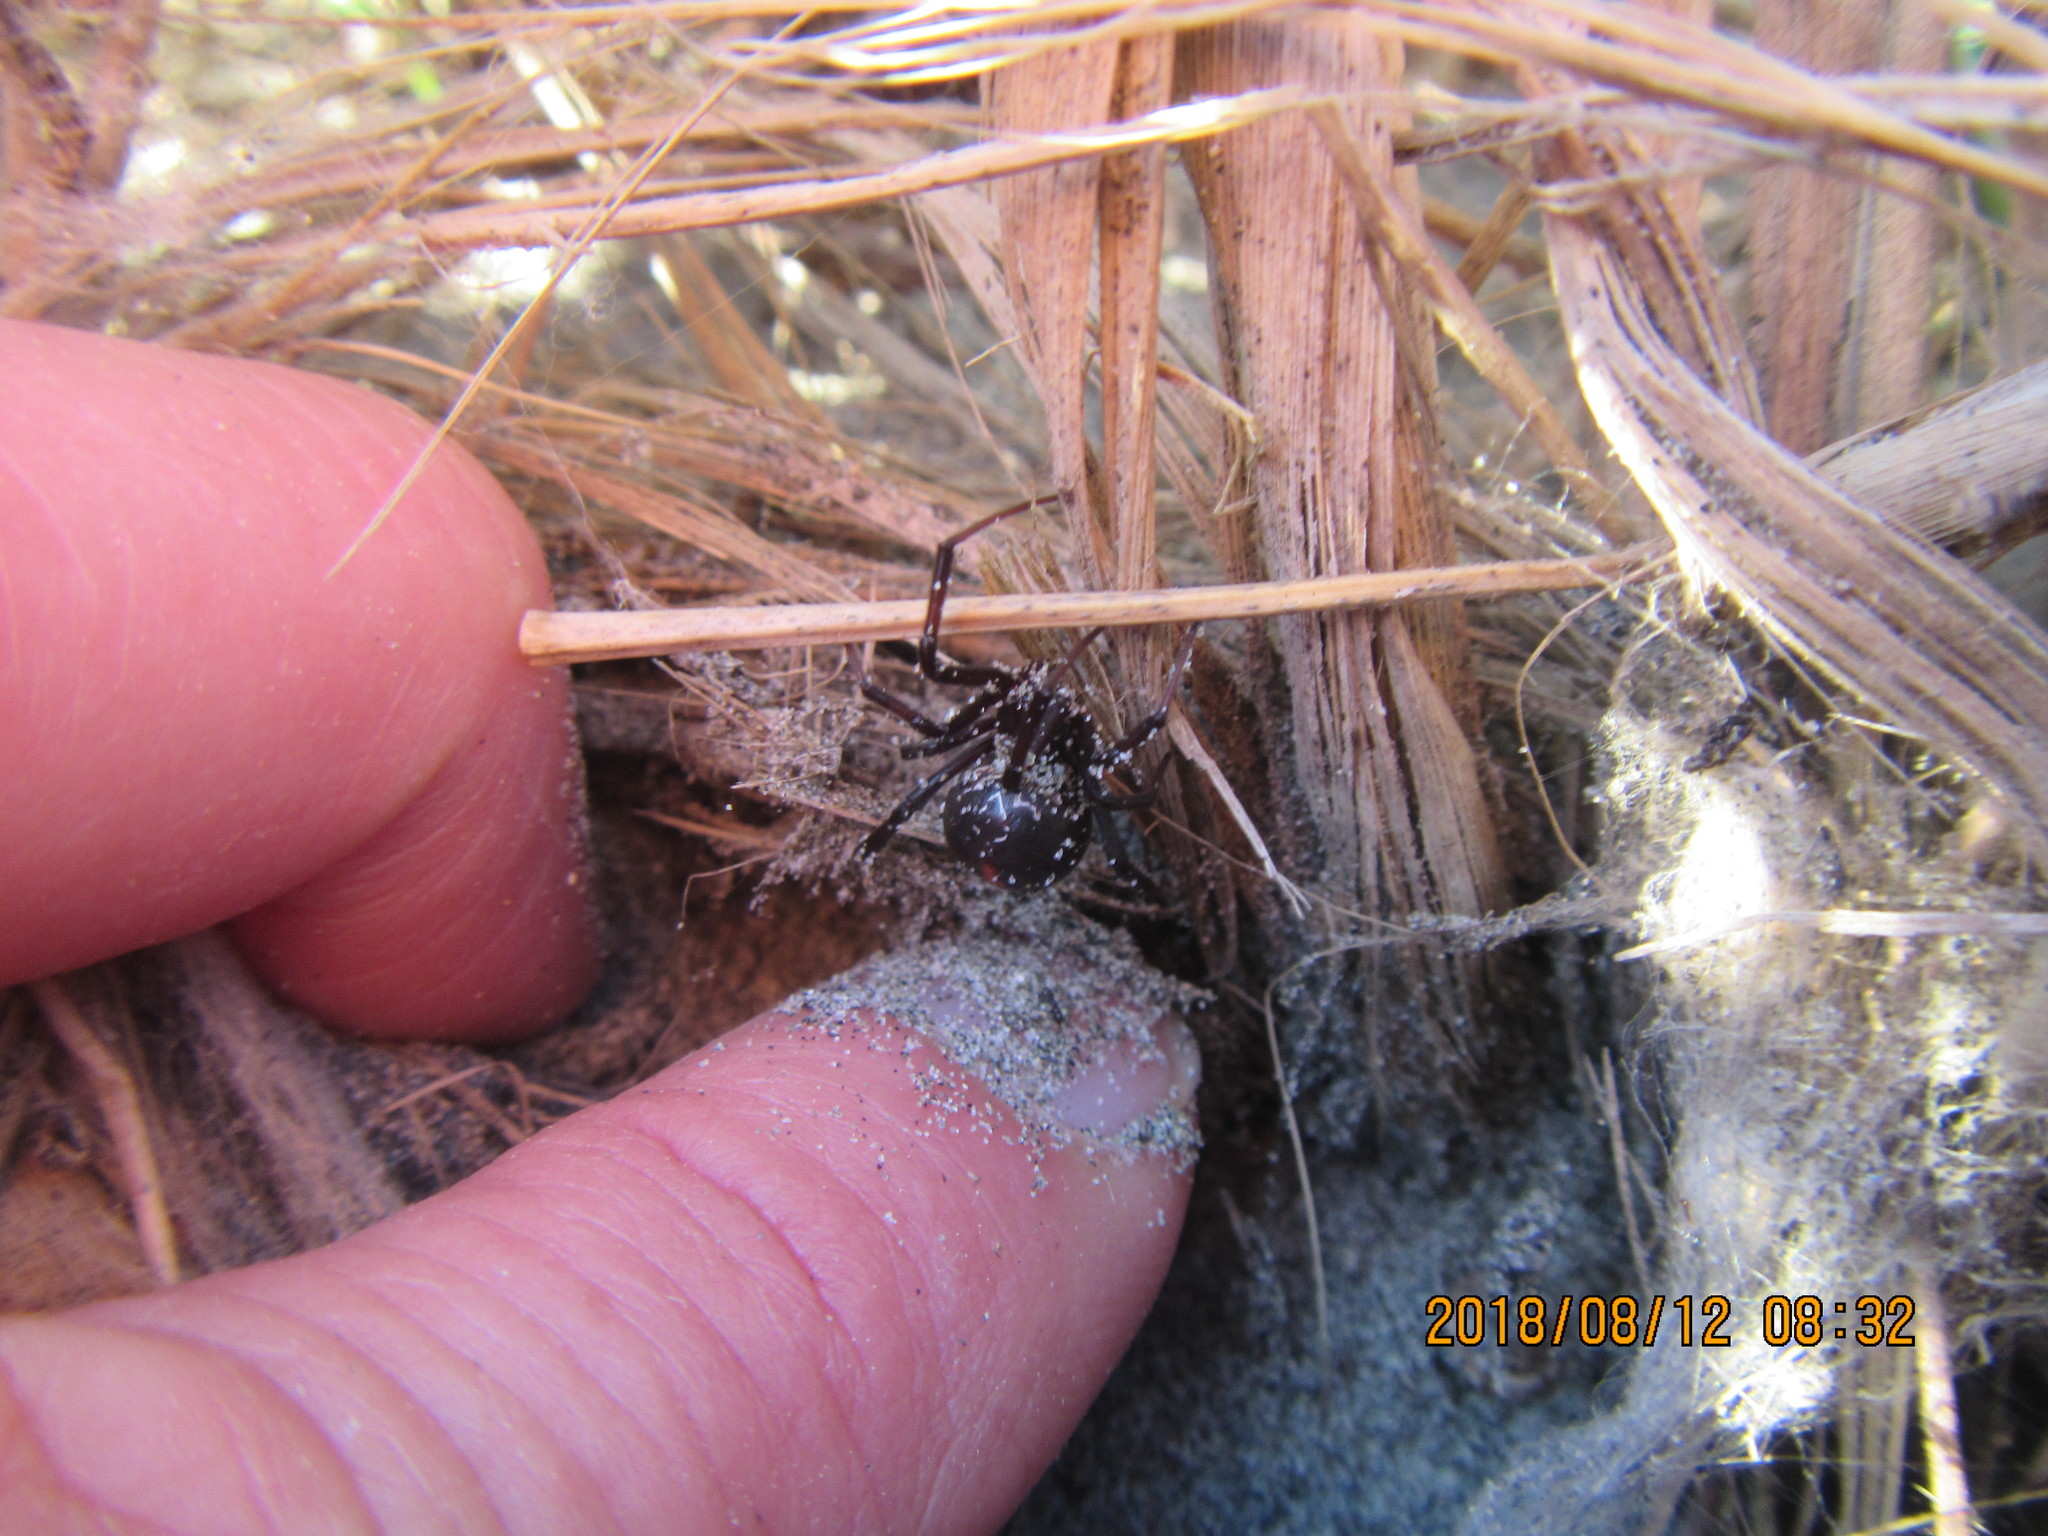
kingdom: Animalia
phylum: Arthropoda
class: Arachnida
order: Araneae
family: Theridiidae
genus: Latrodectus
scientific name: Latrodectus katipo
